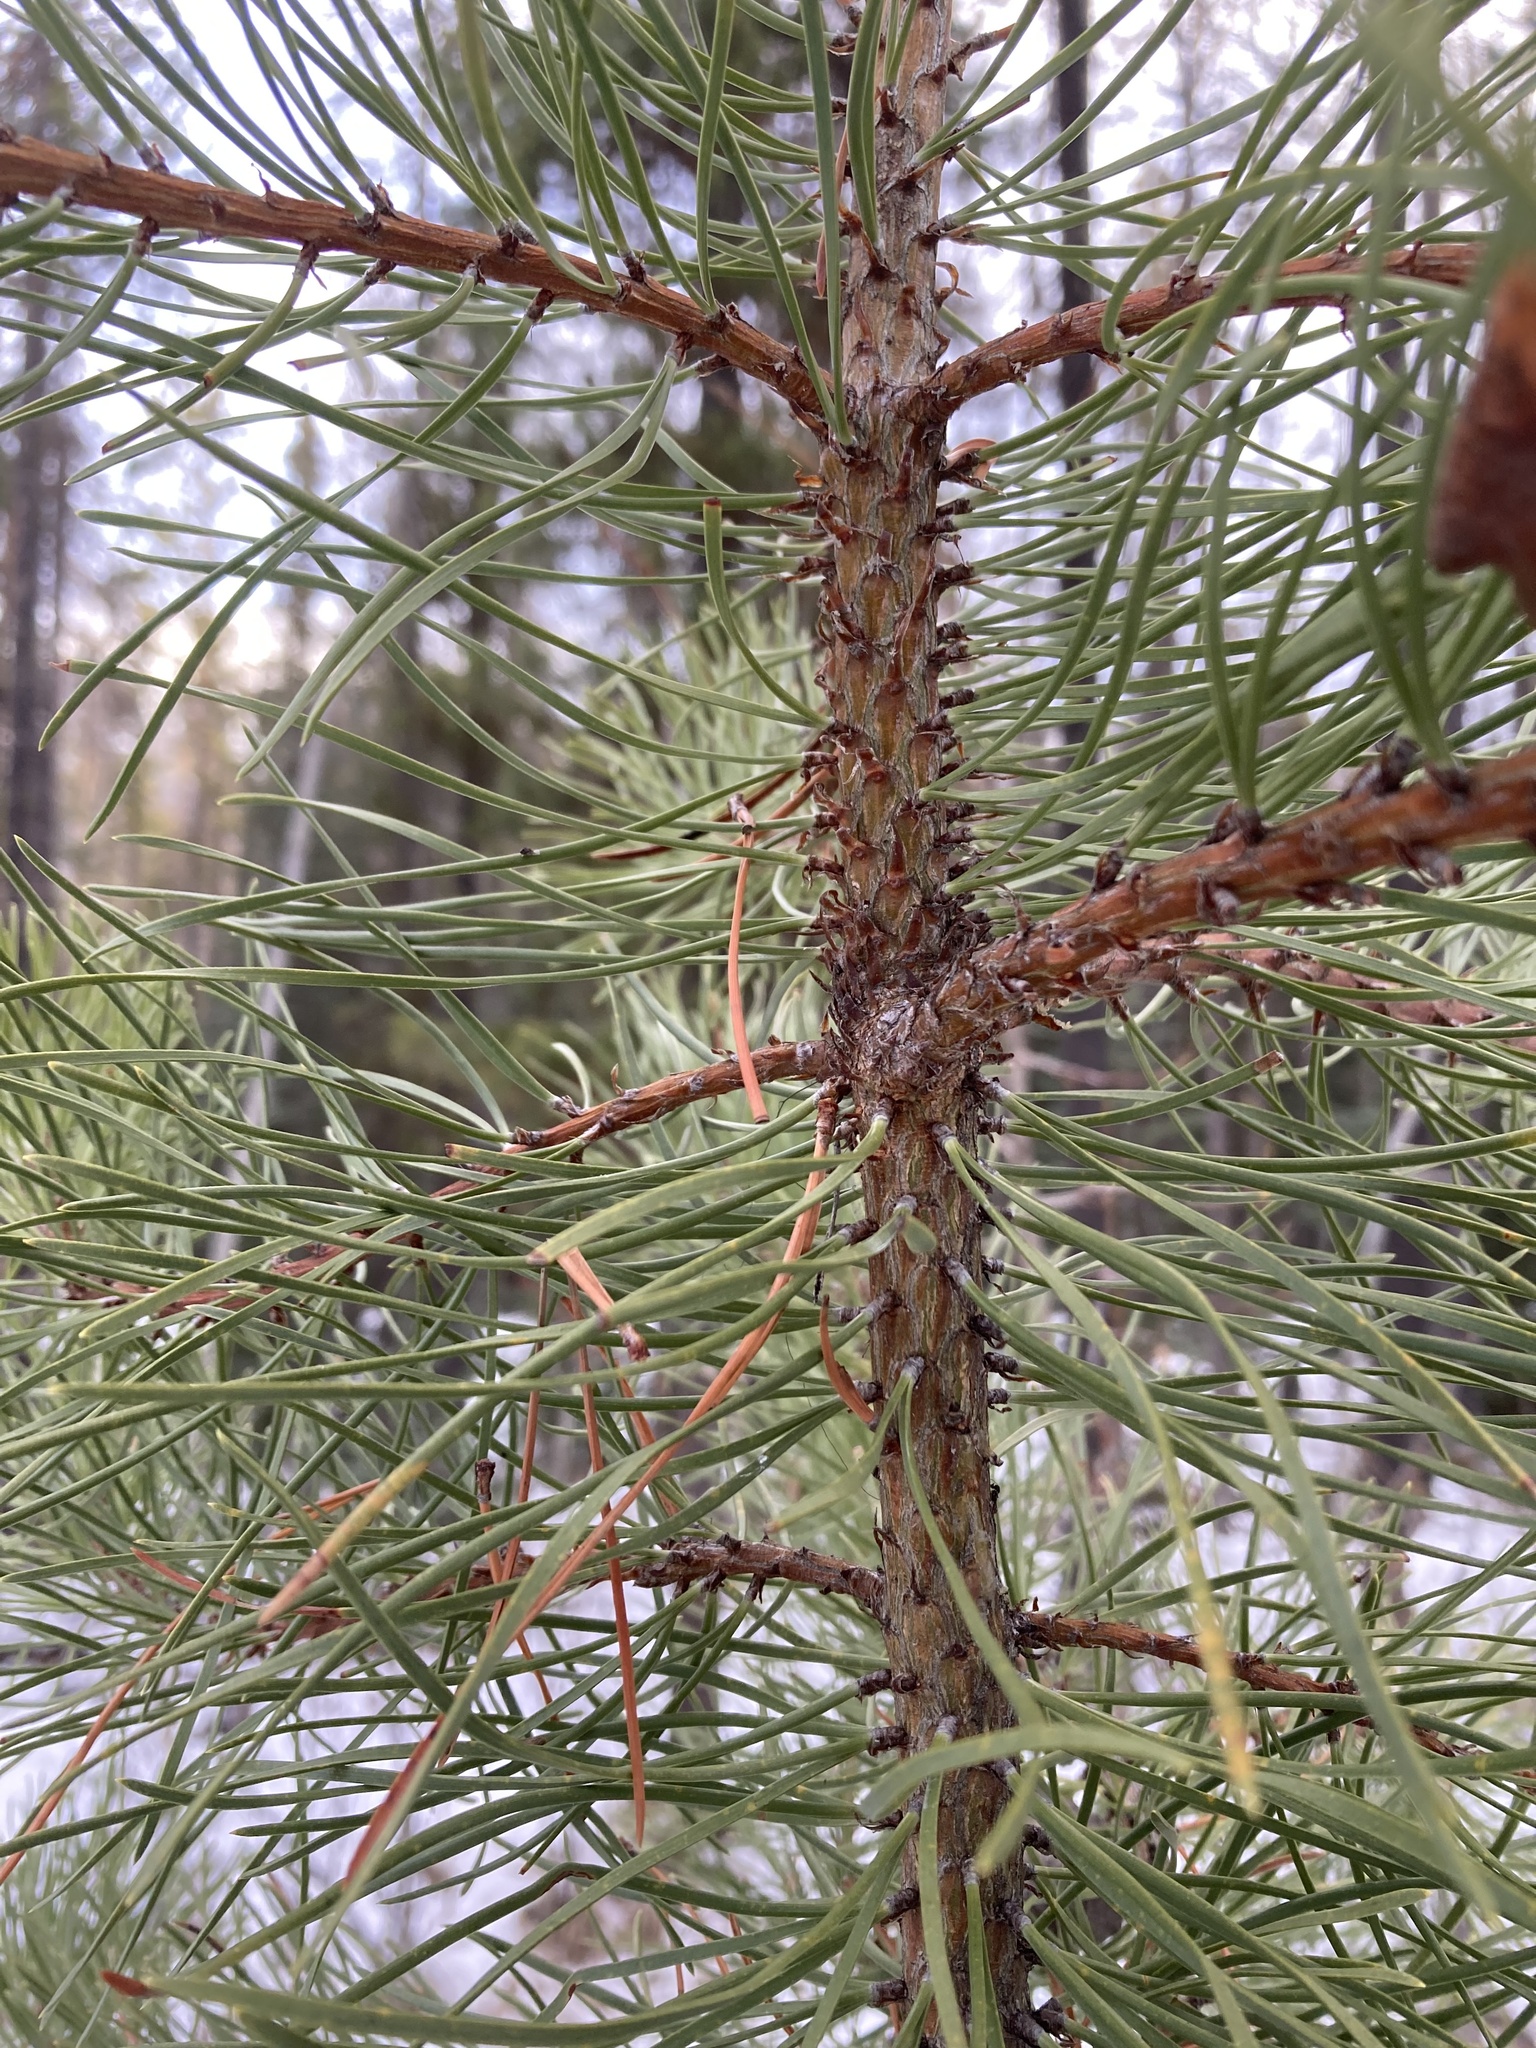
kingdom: Plantae
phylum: Tracheophyta
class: Pinopsida
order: Pinales
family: Pinaceae
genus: Pinus
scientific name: Pinus contorta
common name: Lodgepole pine
